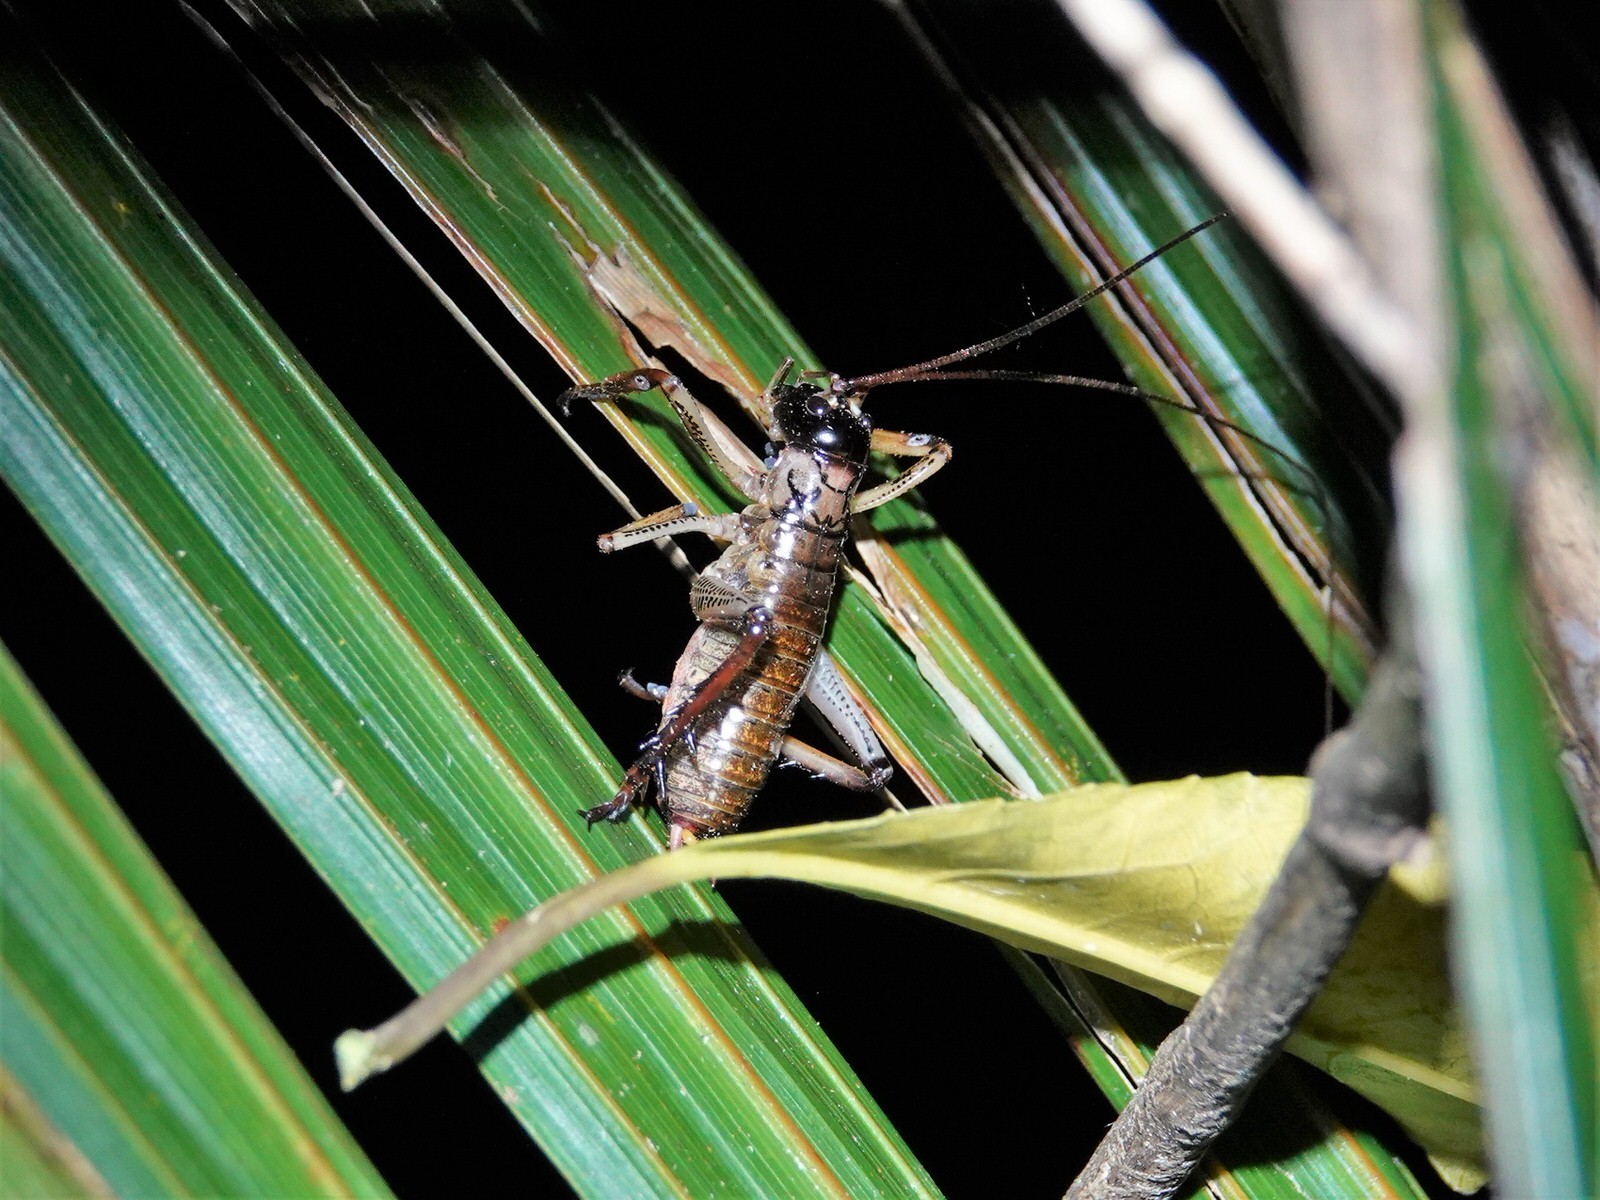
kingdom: Animalia
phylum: Arthropoda
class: Insecta
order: Orthoptera
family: Anostostomatidae
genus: Hemideina
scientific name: Hemideina thoracica
